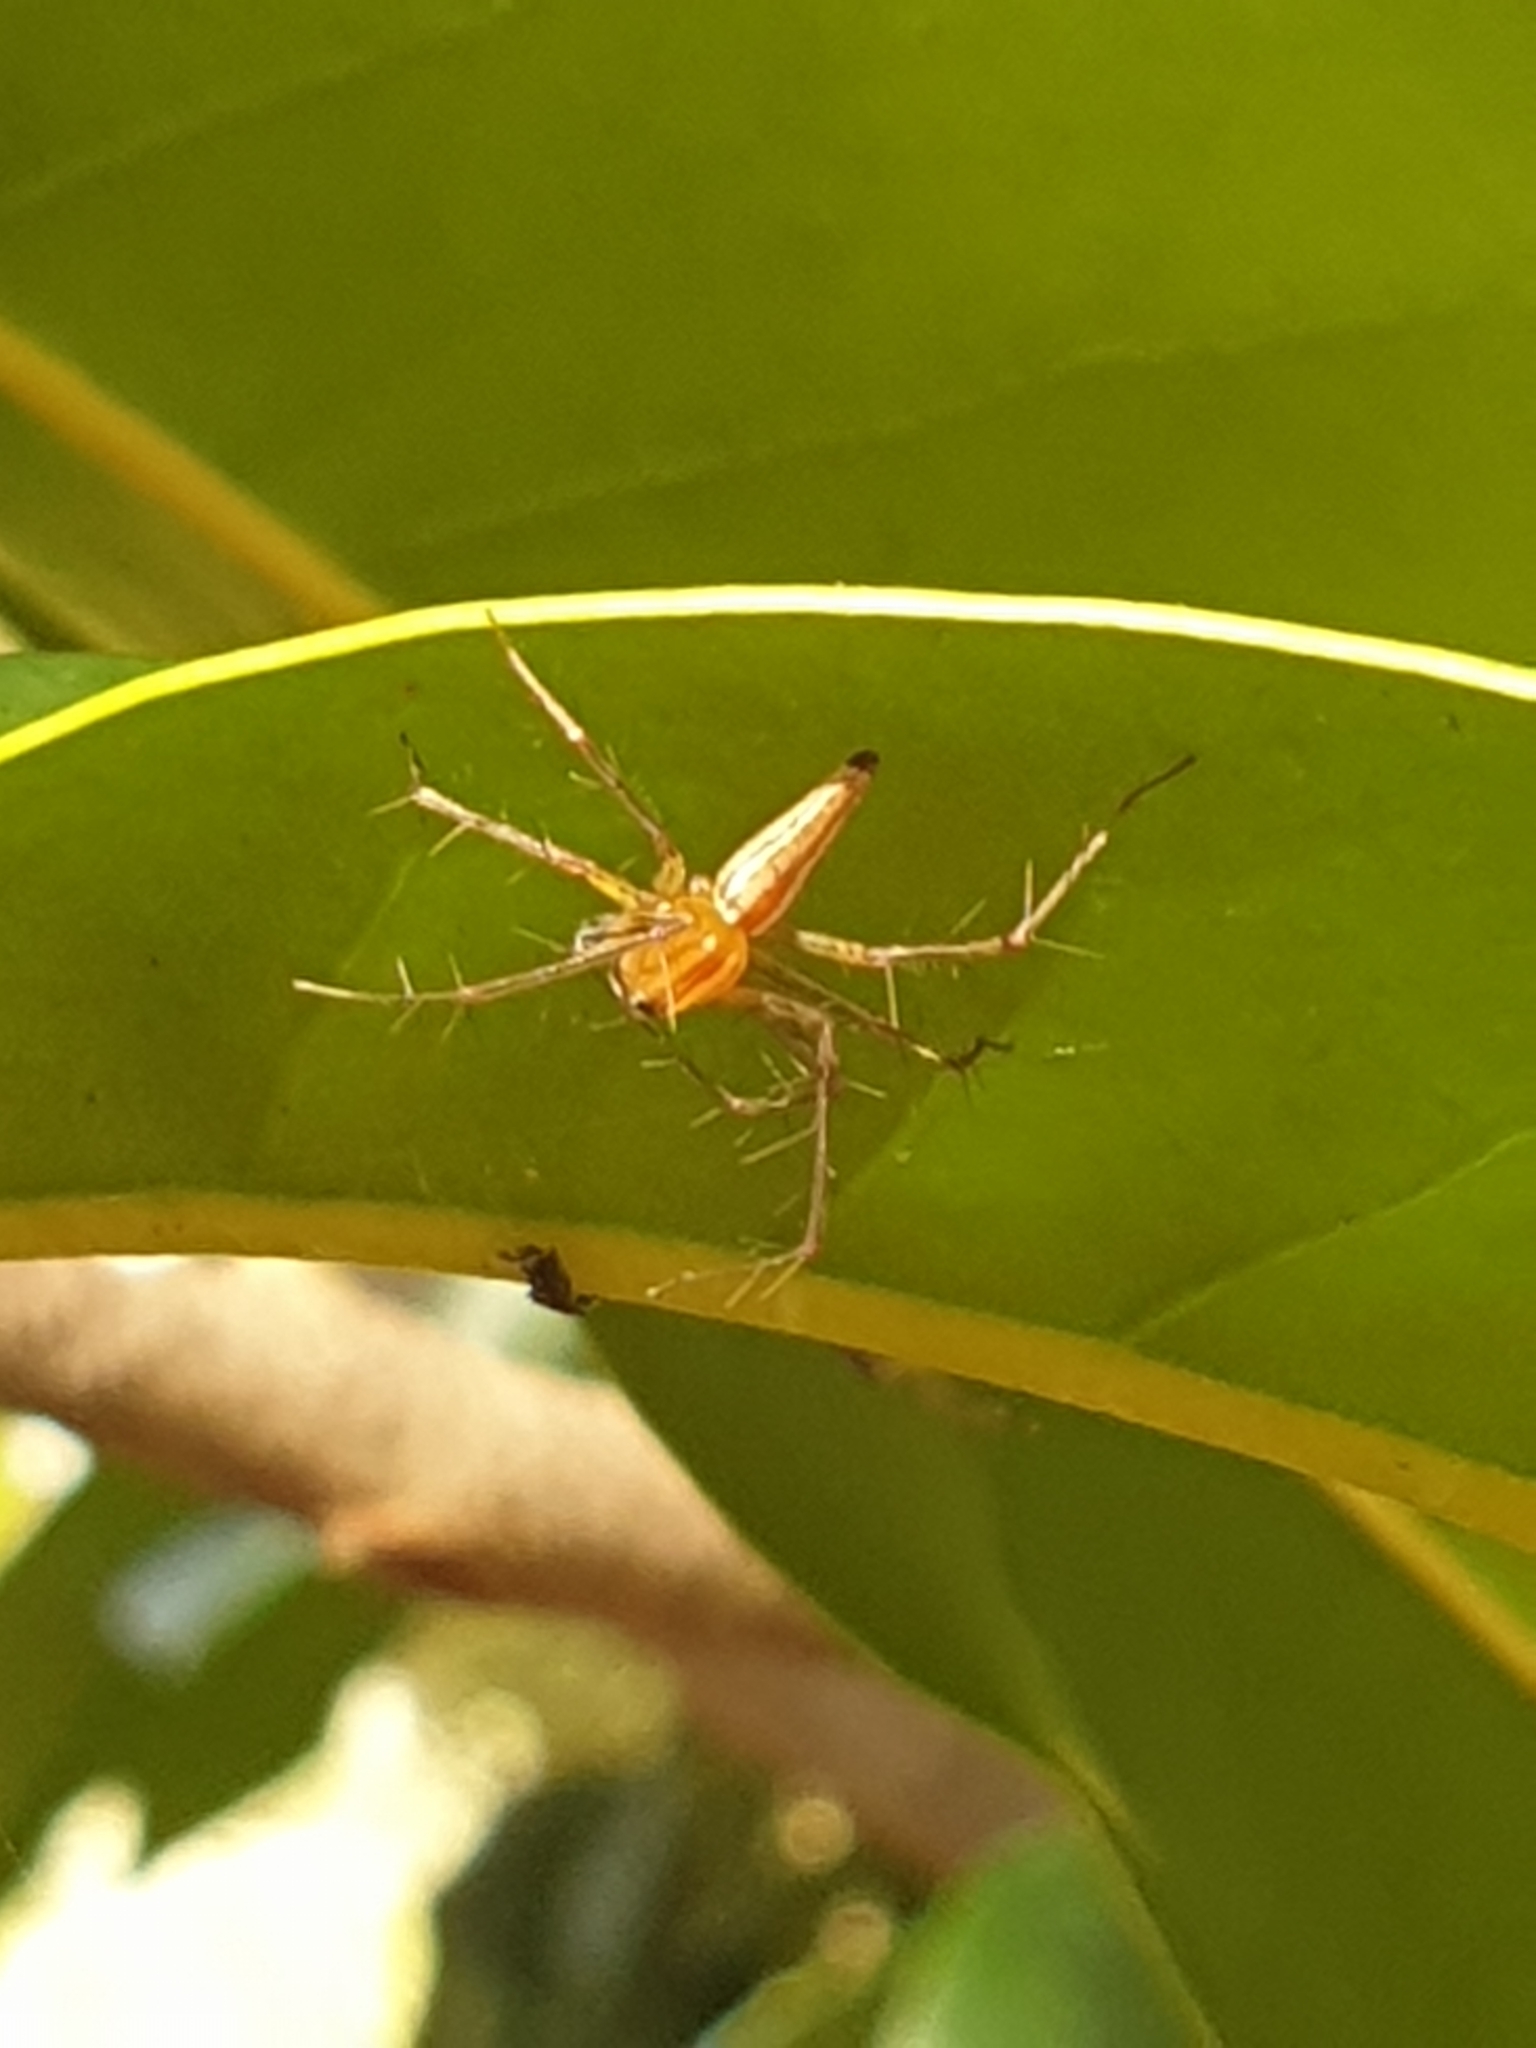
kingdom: Animalia
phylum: Arthropoda
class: Arachnida
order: Araneae
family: Oxyopidae
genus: Oxyopes
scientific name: Oxyopes macilentus
